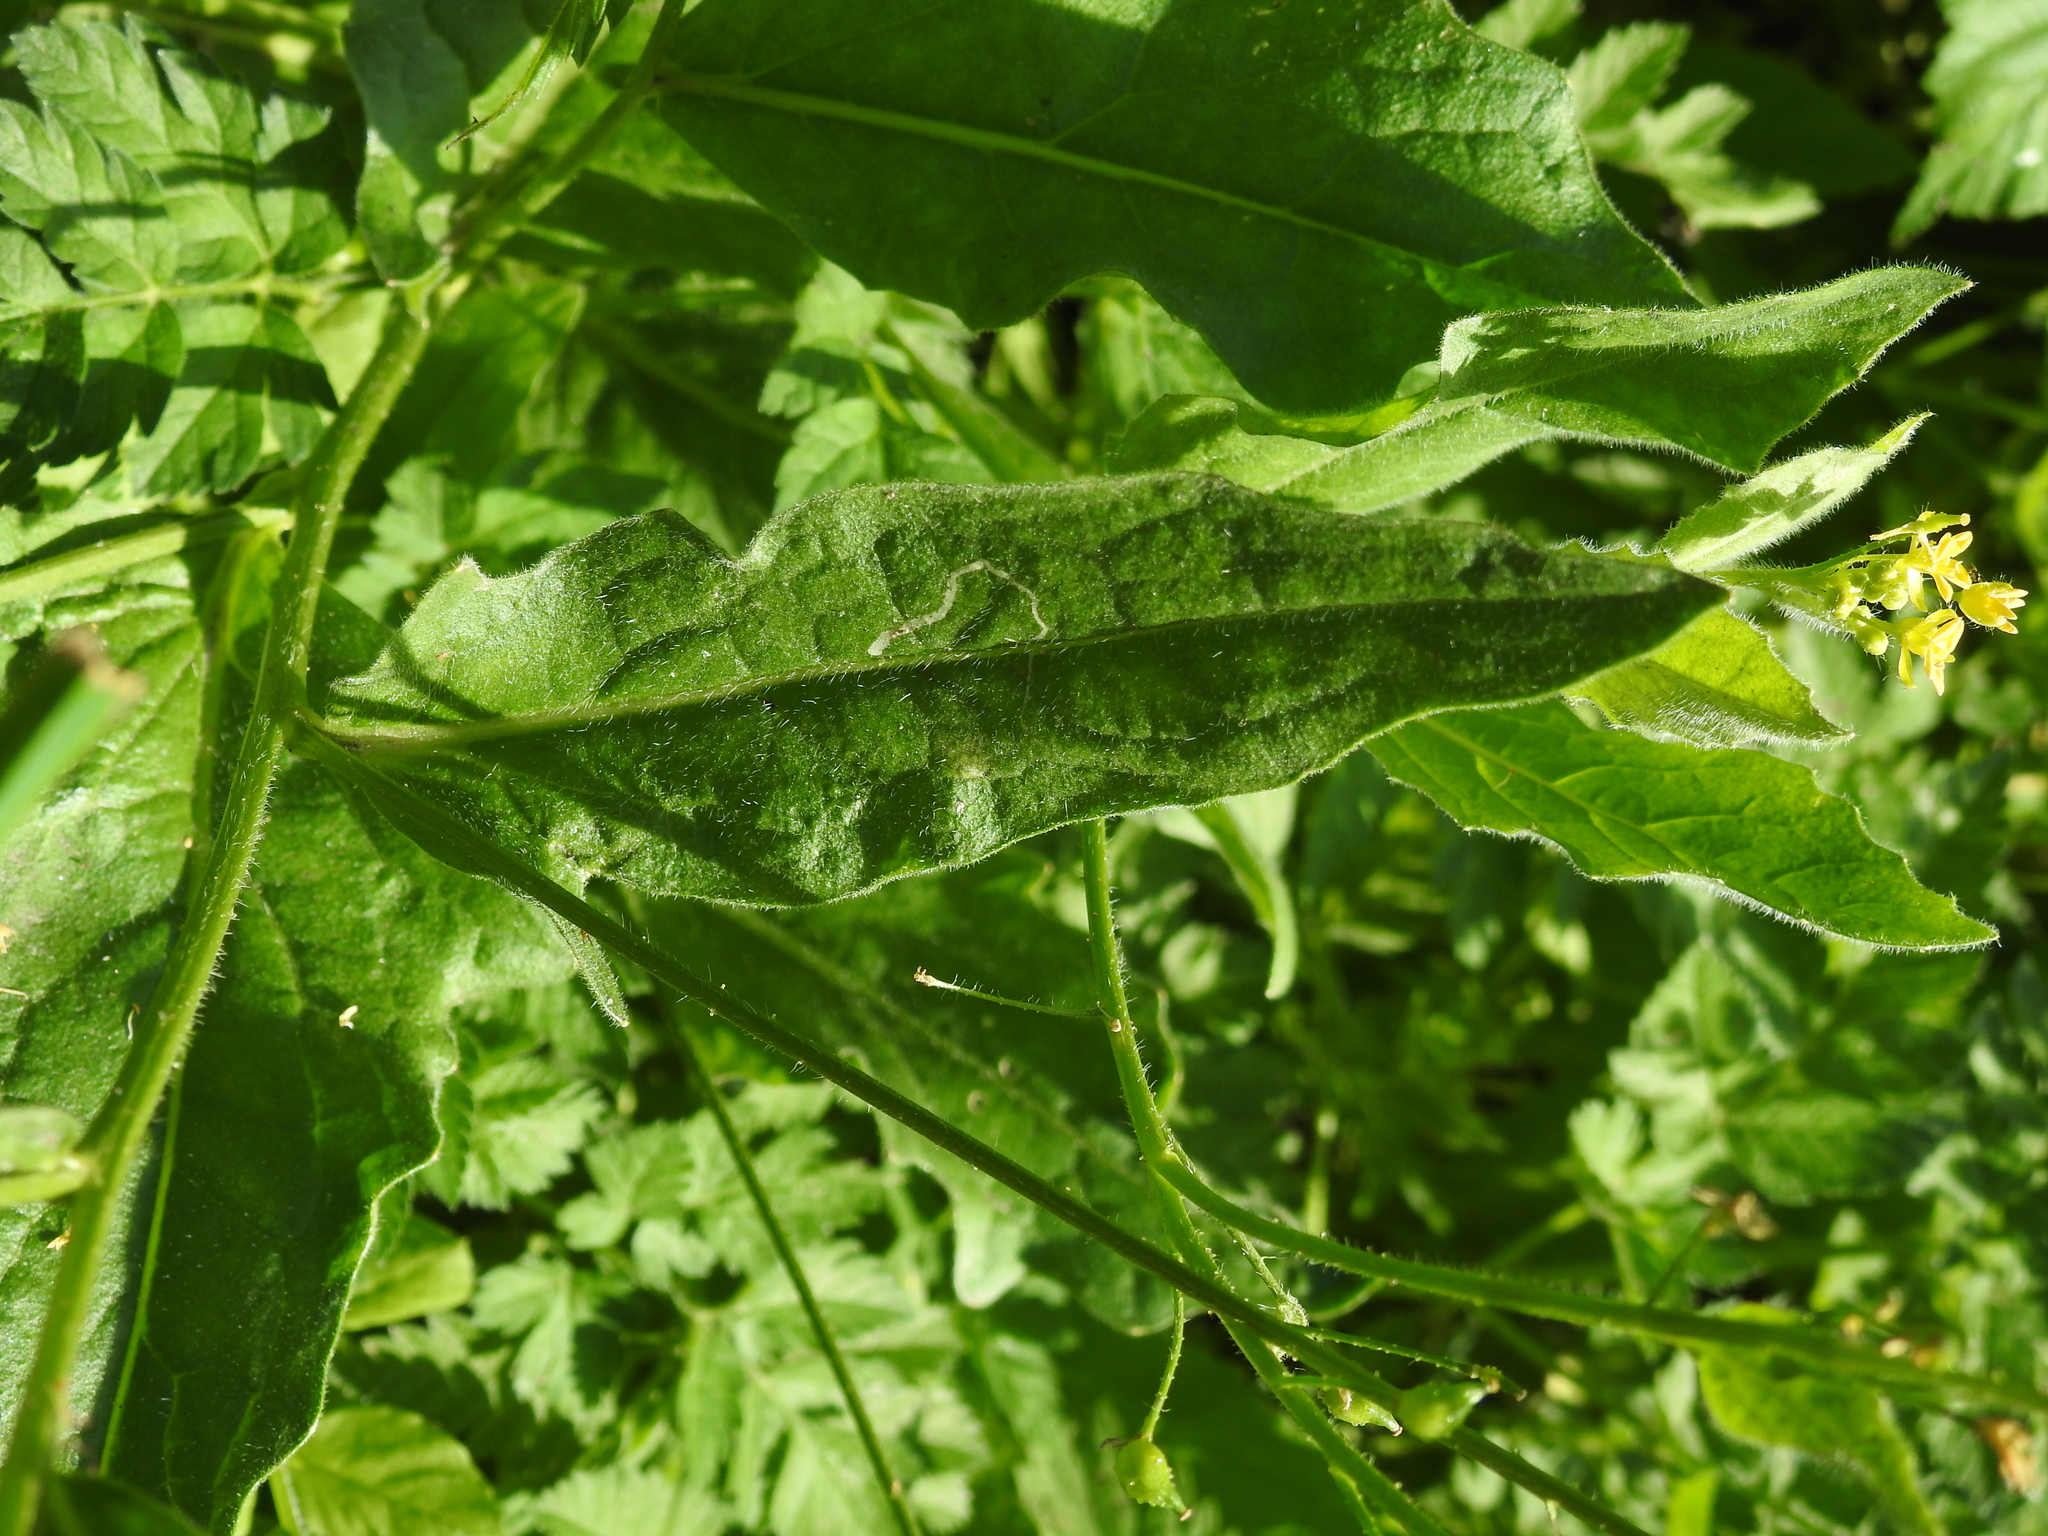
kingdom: Plantae
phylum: Tracheophyta
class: Magnoliopsida
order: Brassicales
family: Brassicaceae
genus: Bunias
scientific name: Bunias orientalis
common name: Warty-cabbage
